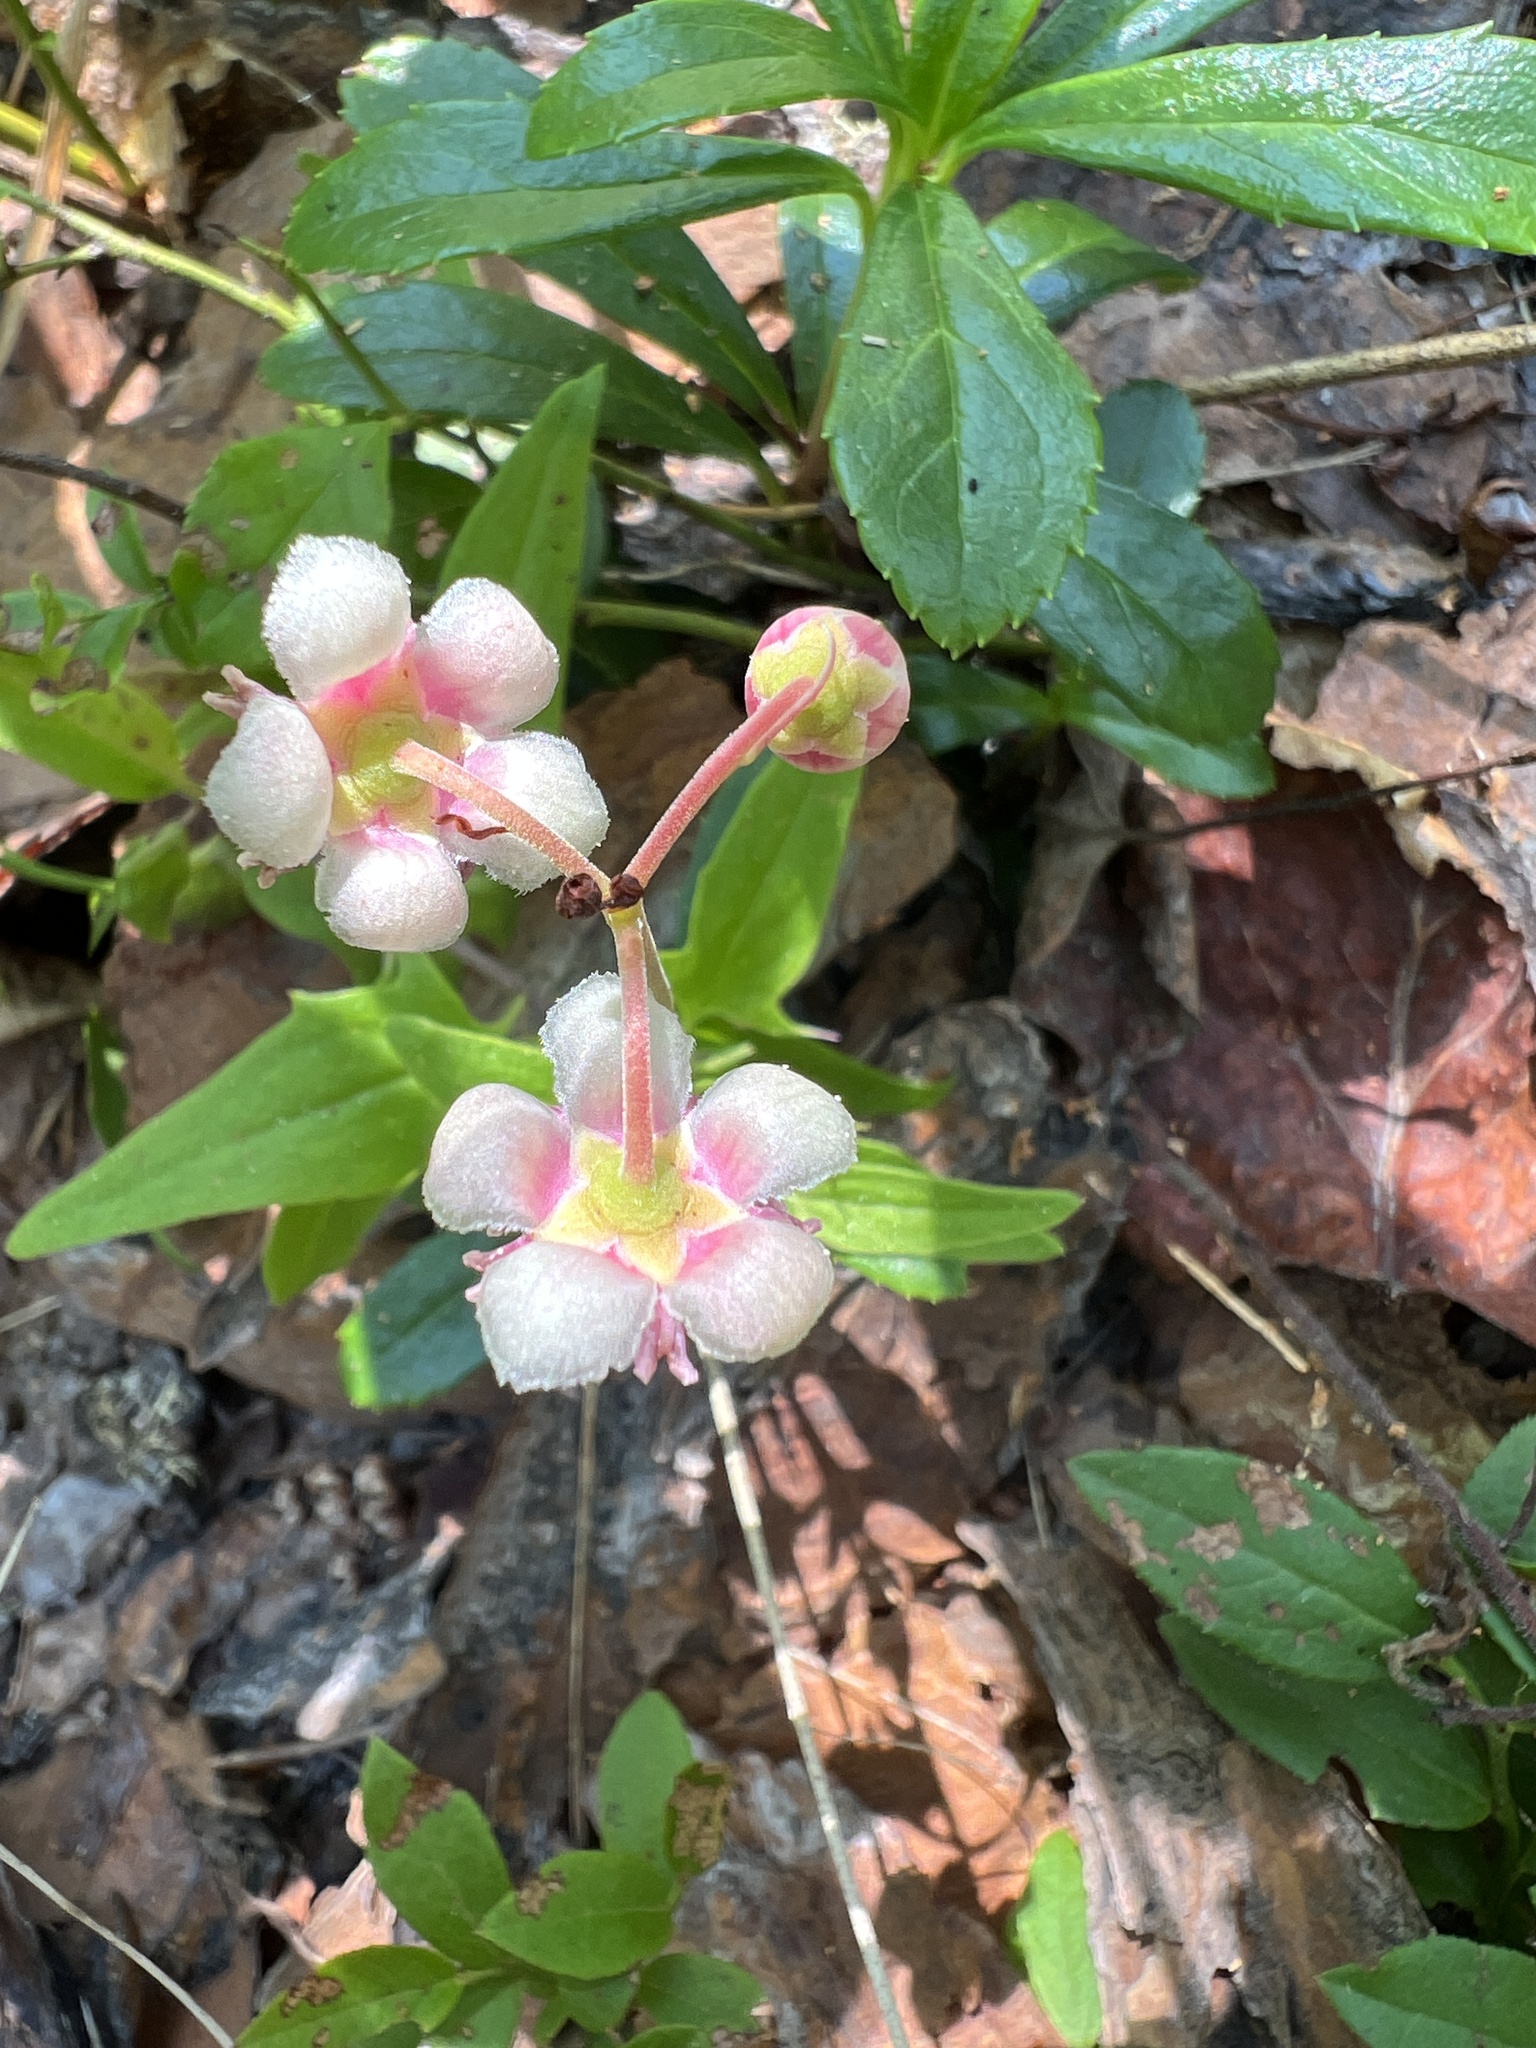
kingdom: Plantae
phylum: Tracheophyta
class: Magnoliopsida
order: Ericales
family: Ericaceae
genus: Chimaphila
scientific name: Chimaphila umbellata
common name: Pipsissewa
